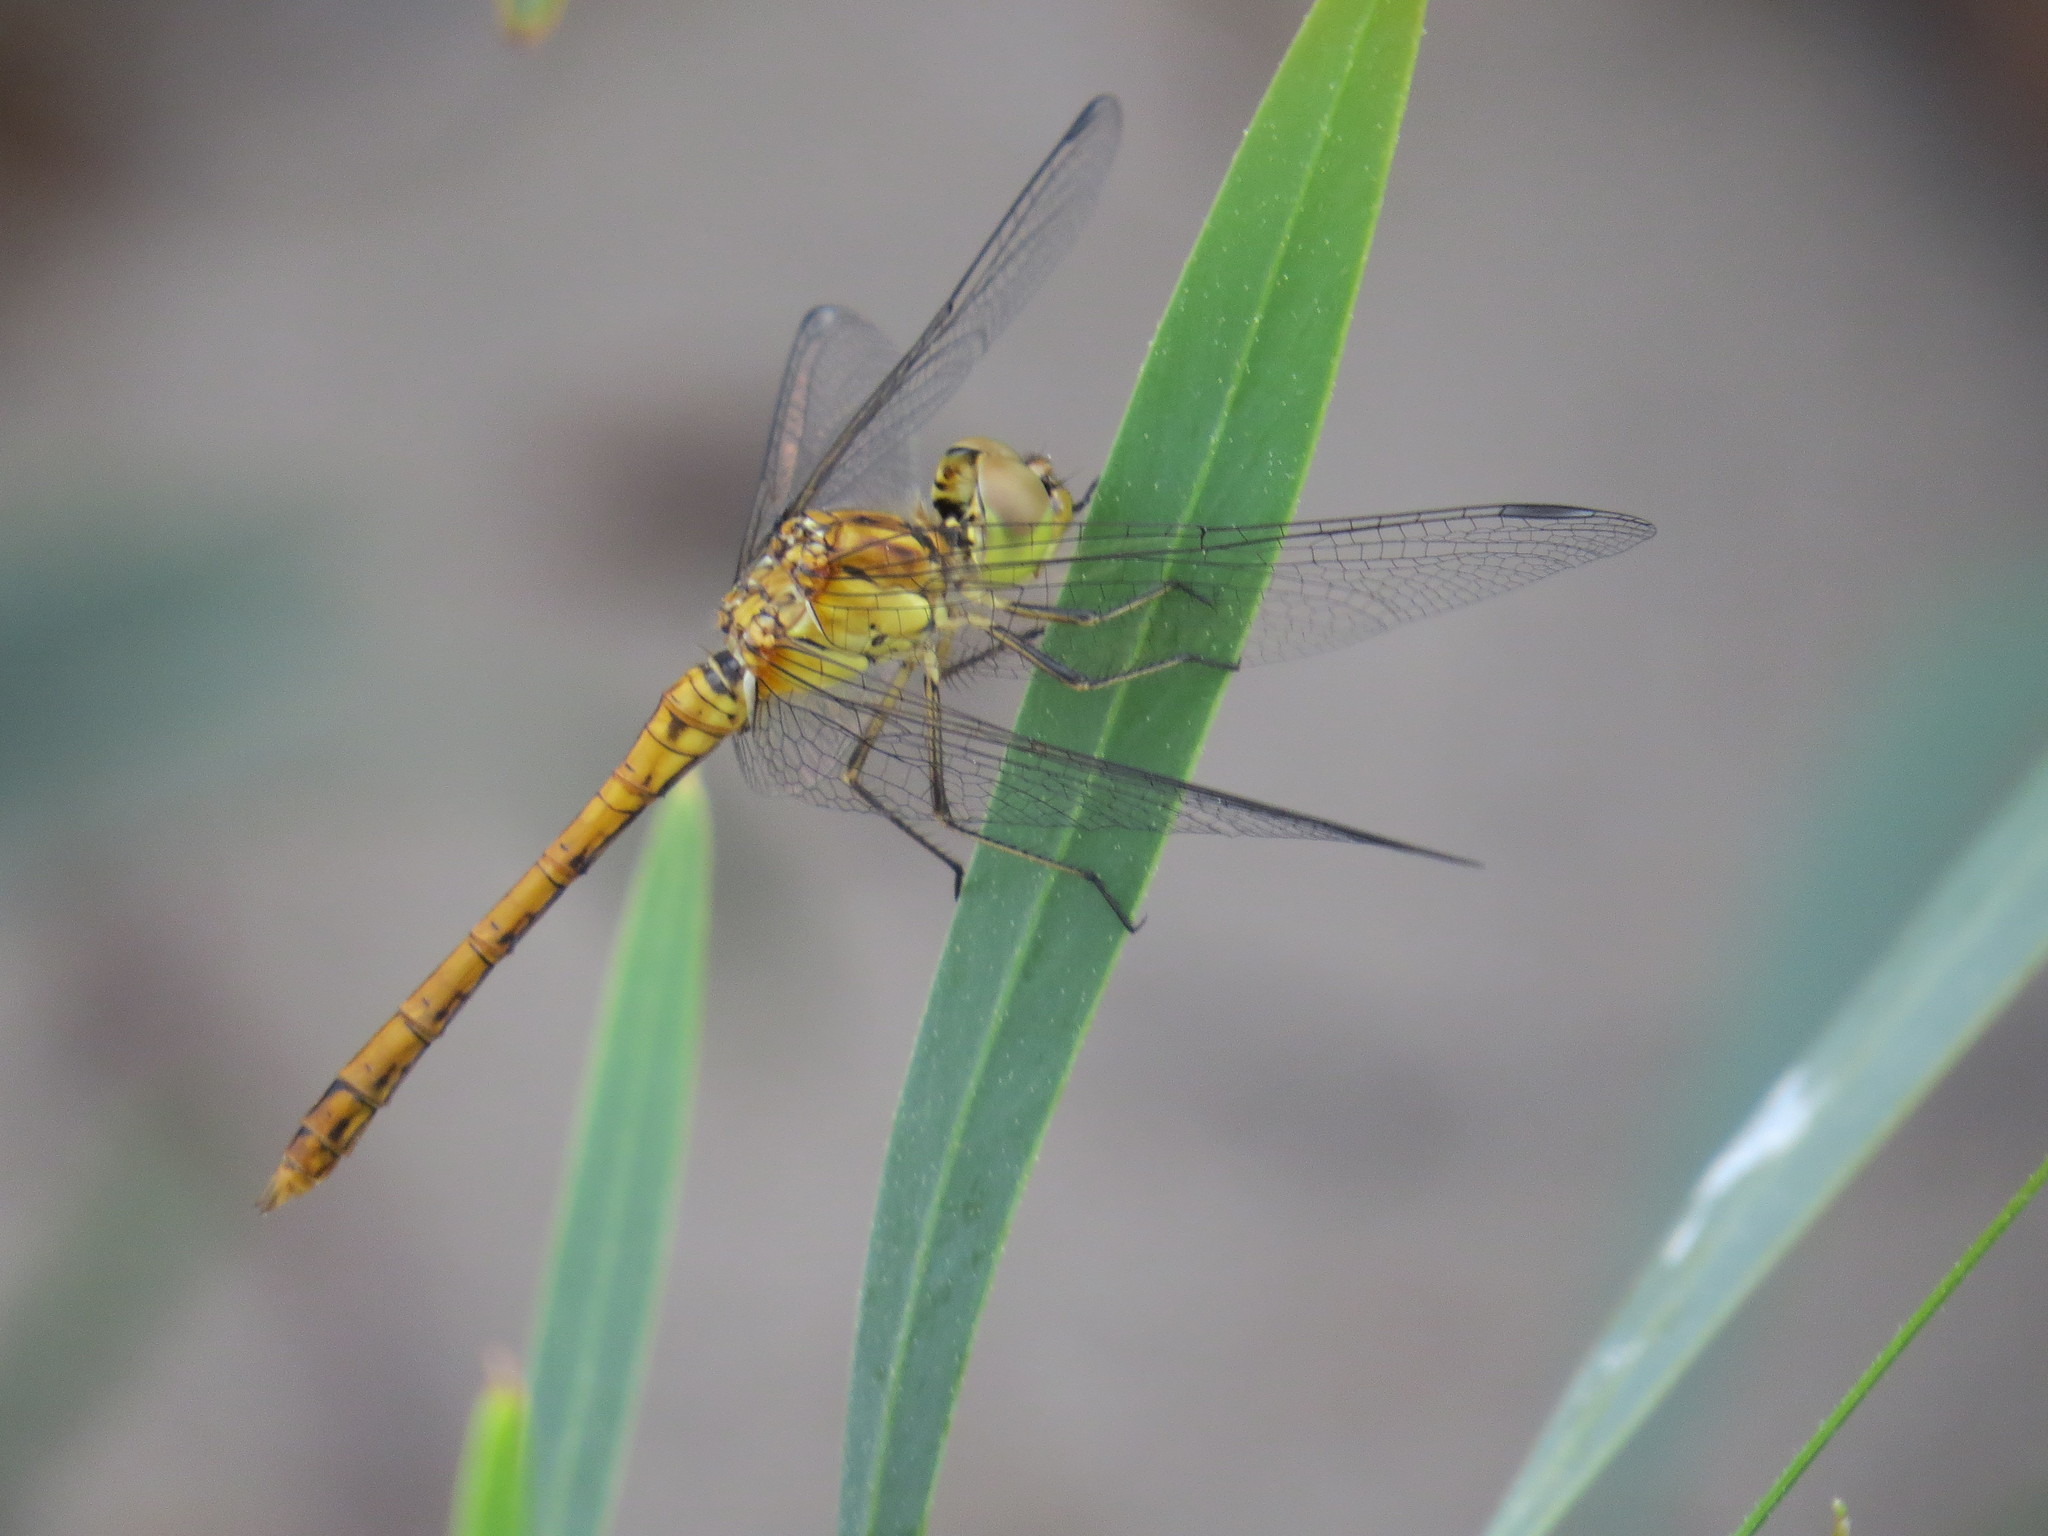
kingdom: Animalia
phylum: Arthropoda
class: Insecta
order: Odonata
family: Libellulidae
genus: Sympetrum
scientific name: Sympetrum meridionale
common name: Southern darter
